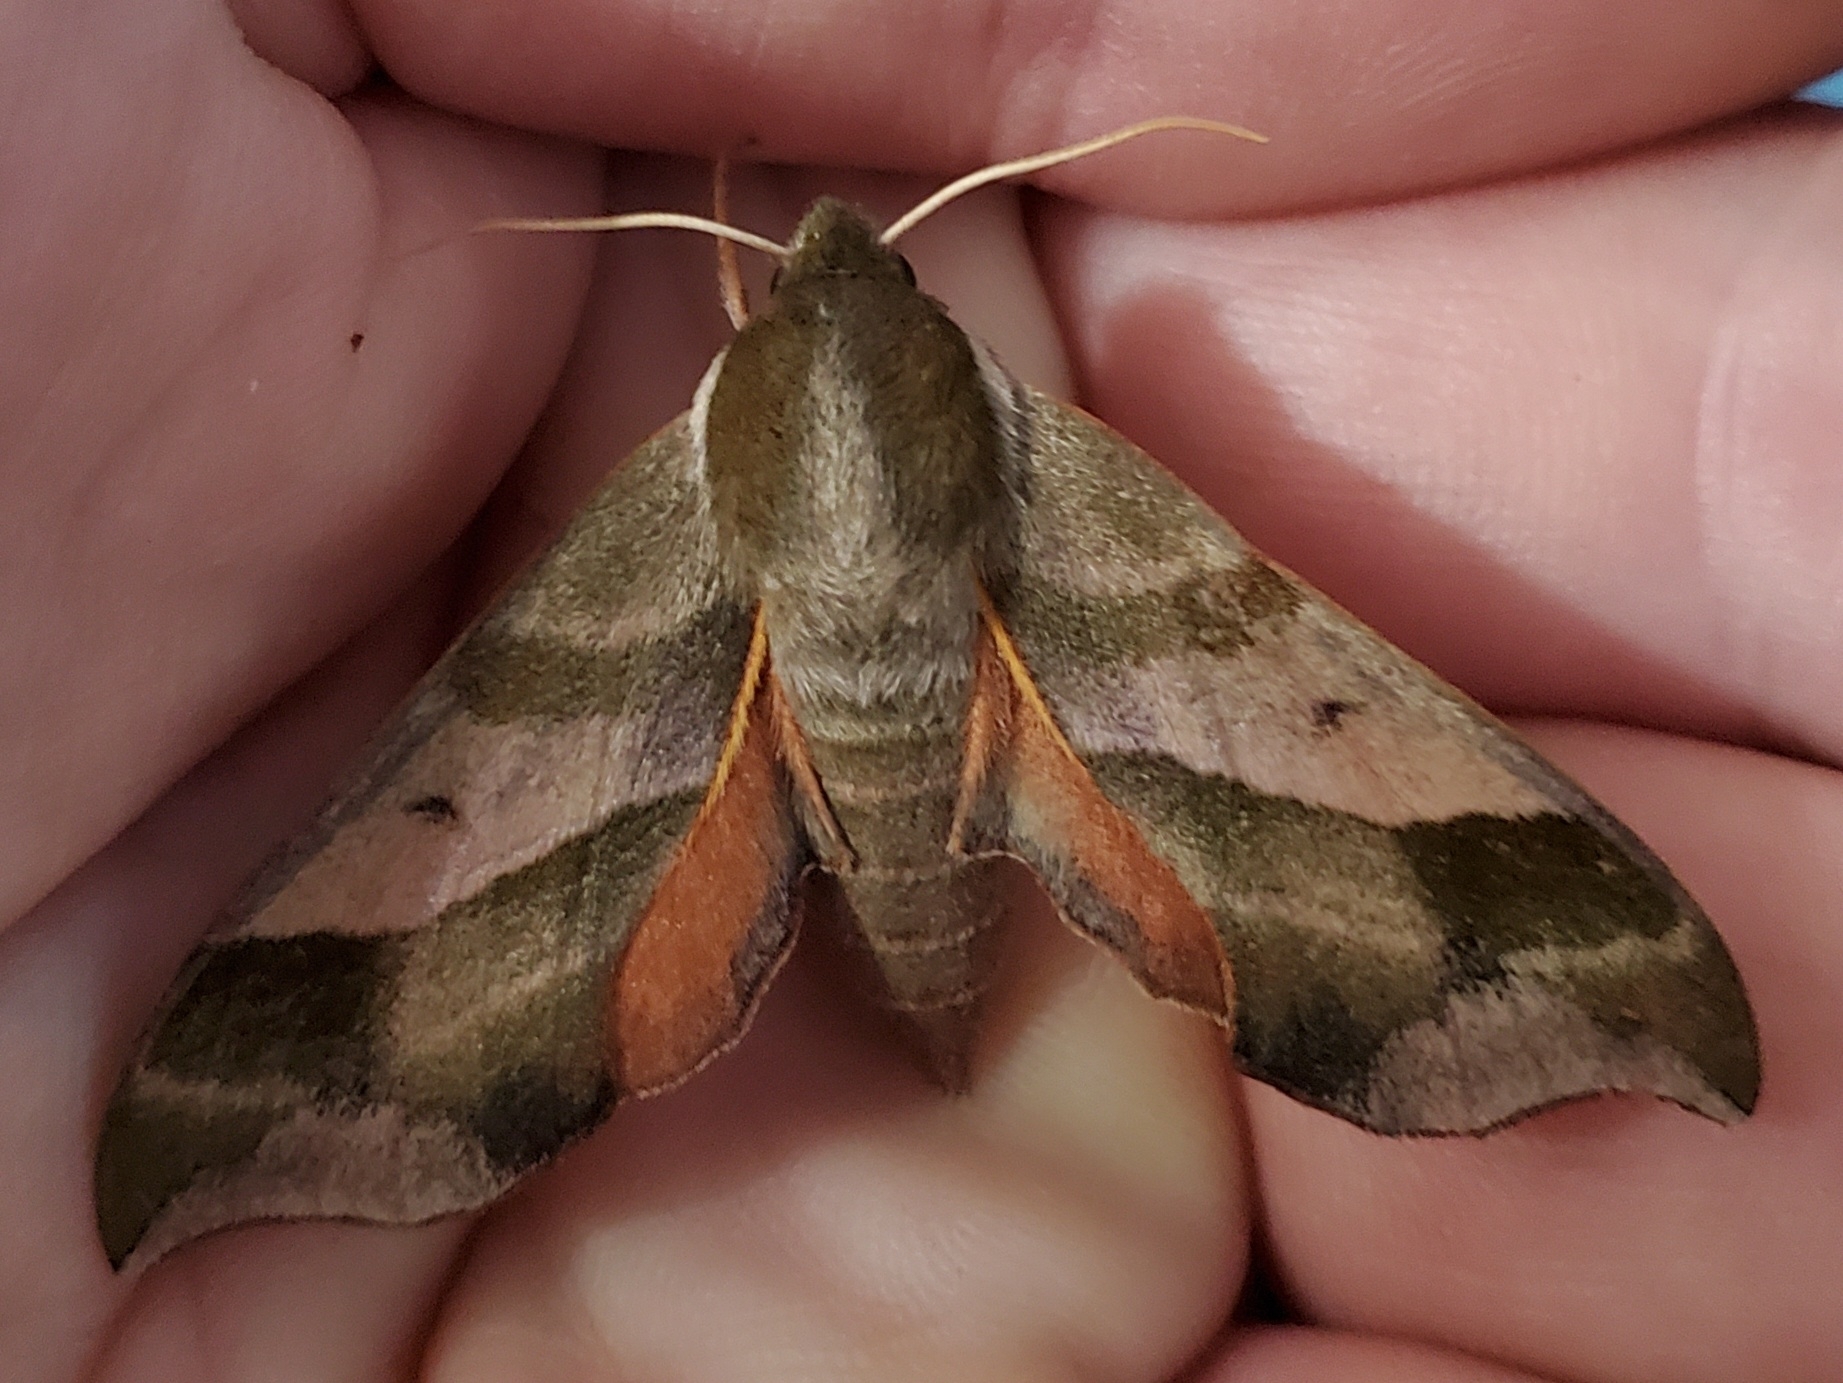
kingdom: Animalia
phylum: Arthropoda
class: Insecta
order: Lepidoptera
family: Sphingidae
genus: Darapsa
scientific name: Darapsa myron
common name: Hog sphinx
